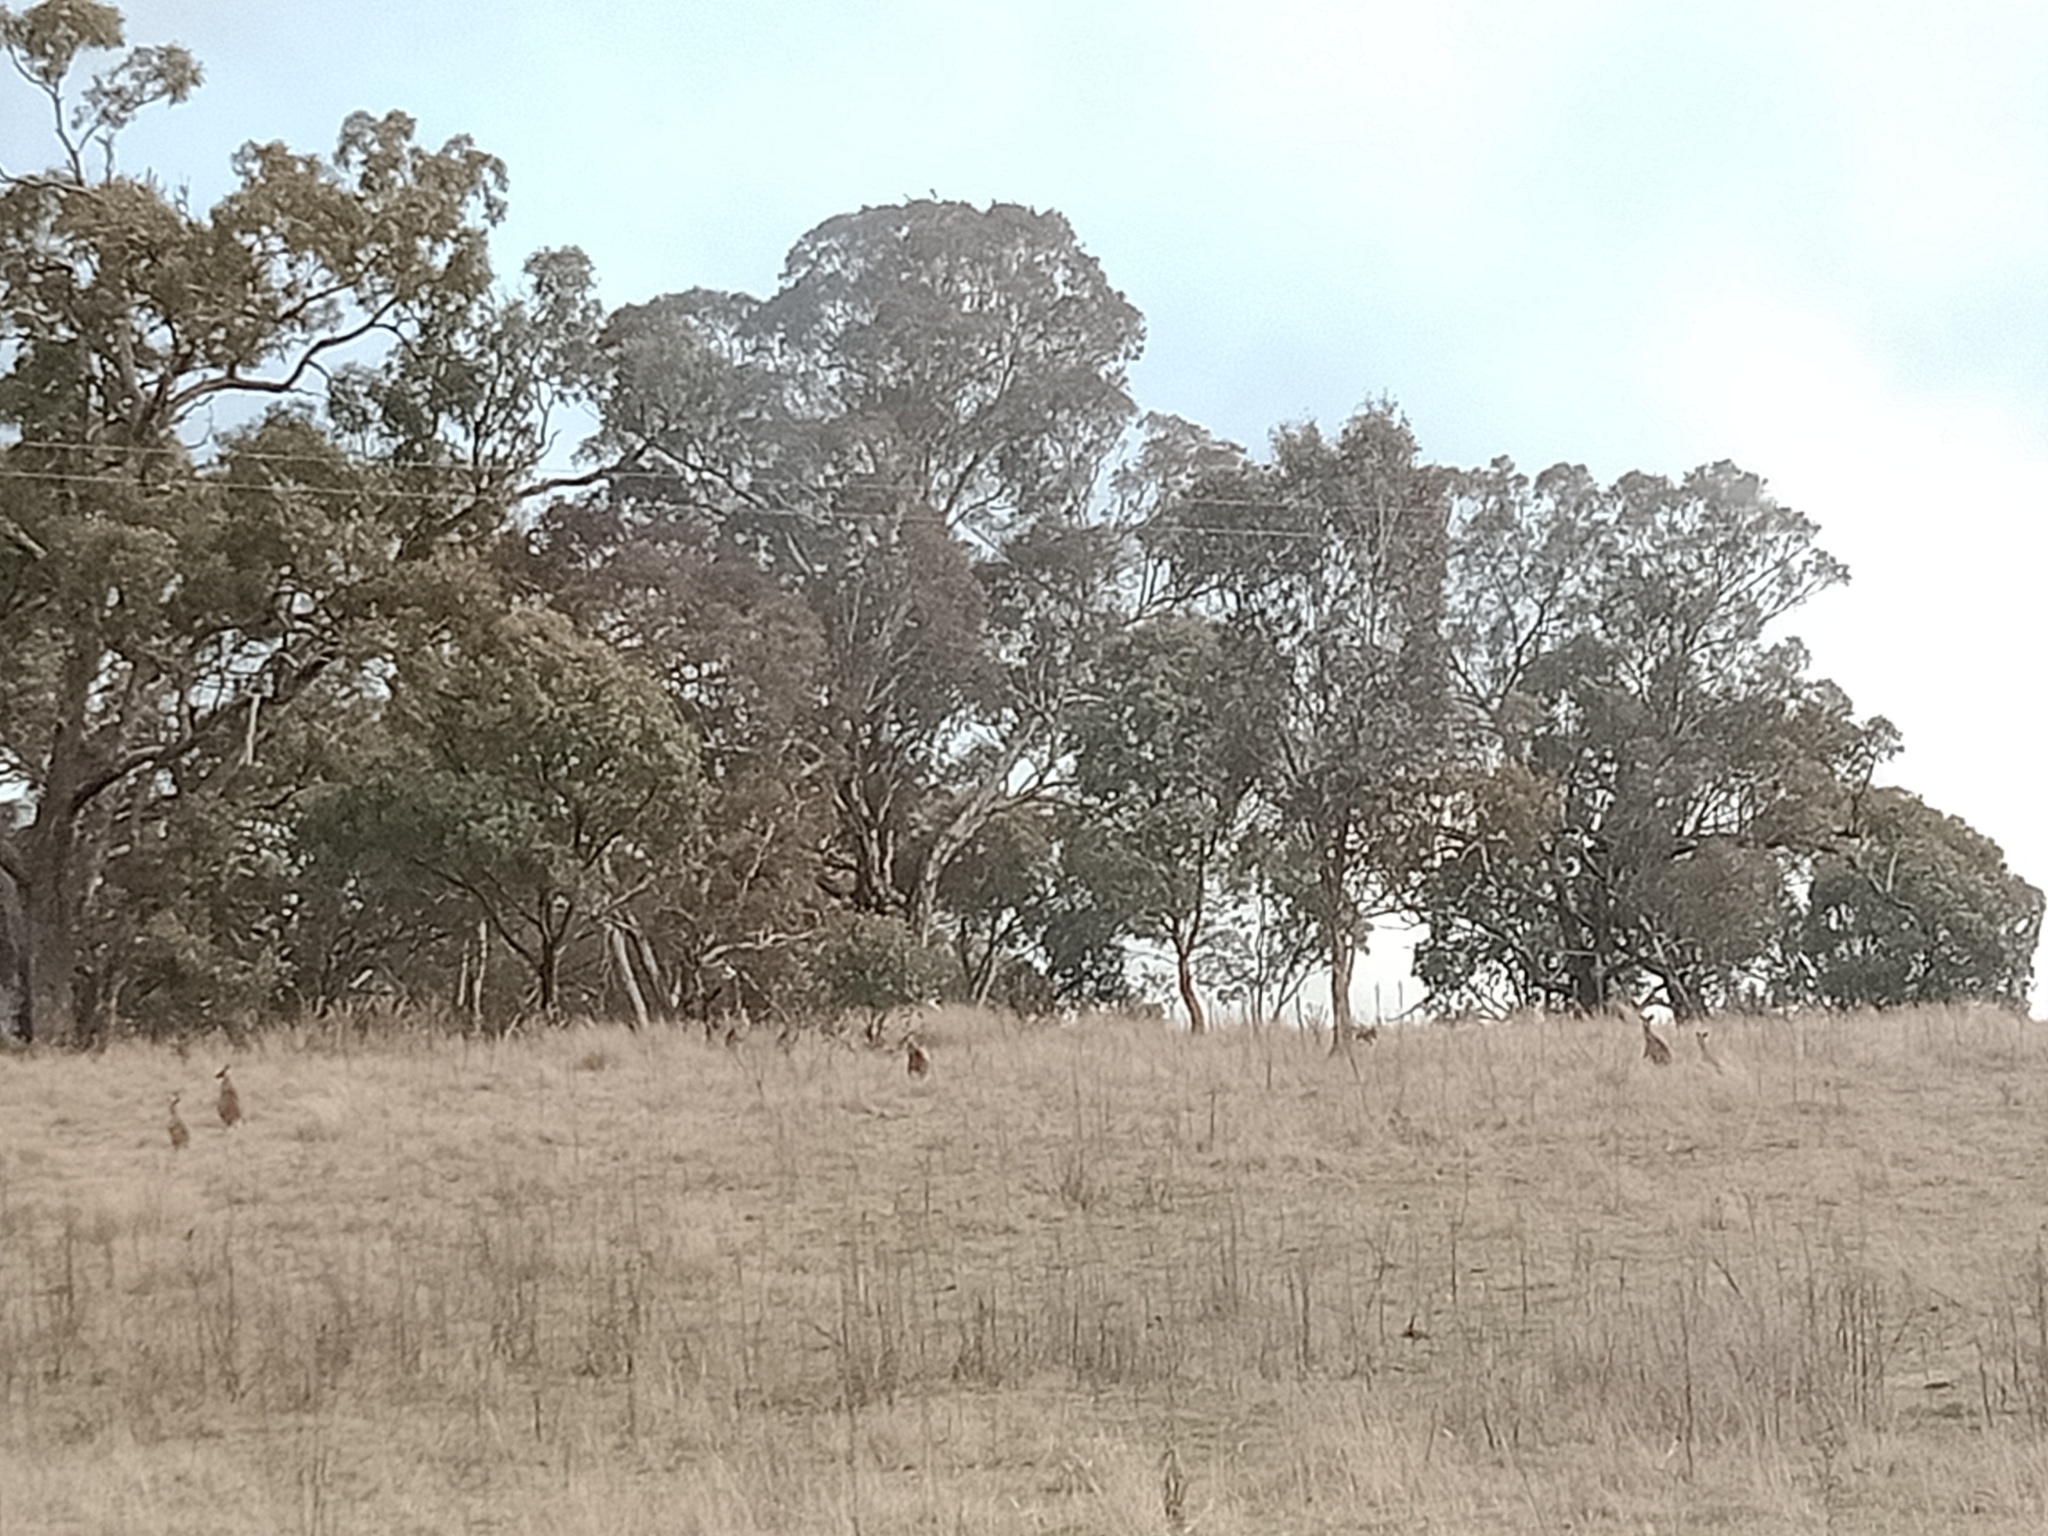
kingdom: Animalia
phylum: Chordata
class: Mammalia
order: Diprotodontia
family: Macropodidae
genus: Macropus
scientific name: Macropus giganteus
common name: Eastern grey kangaroo
